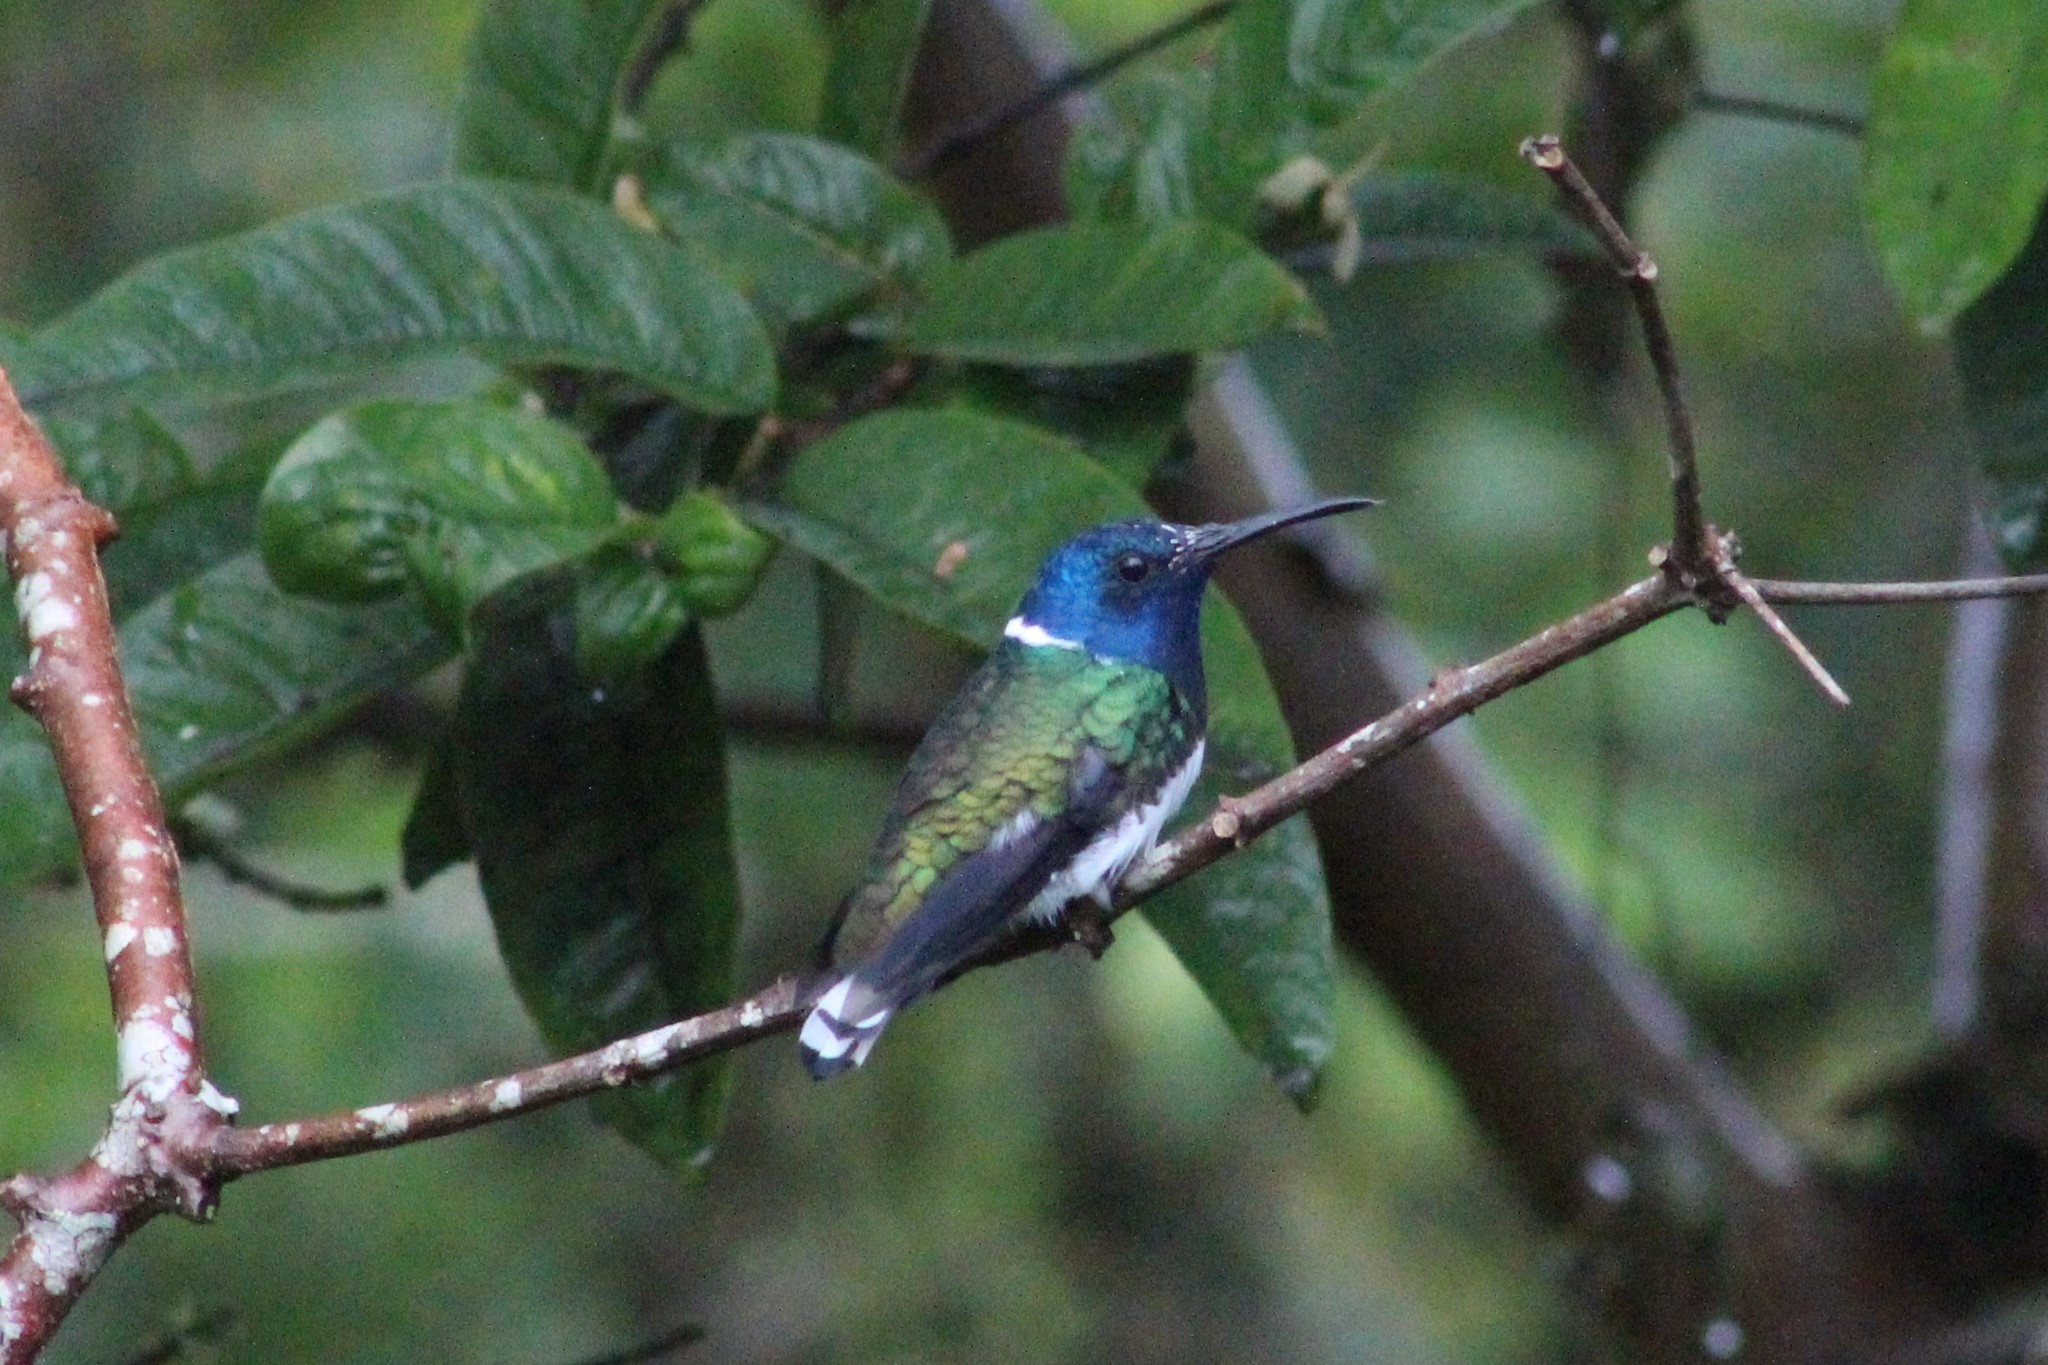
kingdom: Animalia
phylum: Chordata
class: Aves
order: Apodiformes
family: Trochilidae
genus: Florisuga
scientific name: Florisuga mellivora
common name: White-necked jacobin
